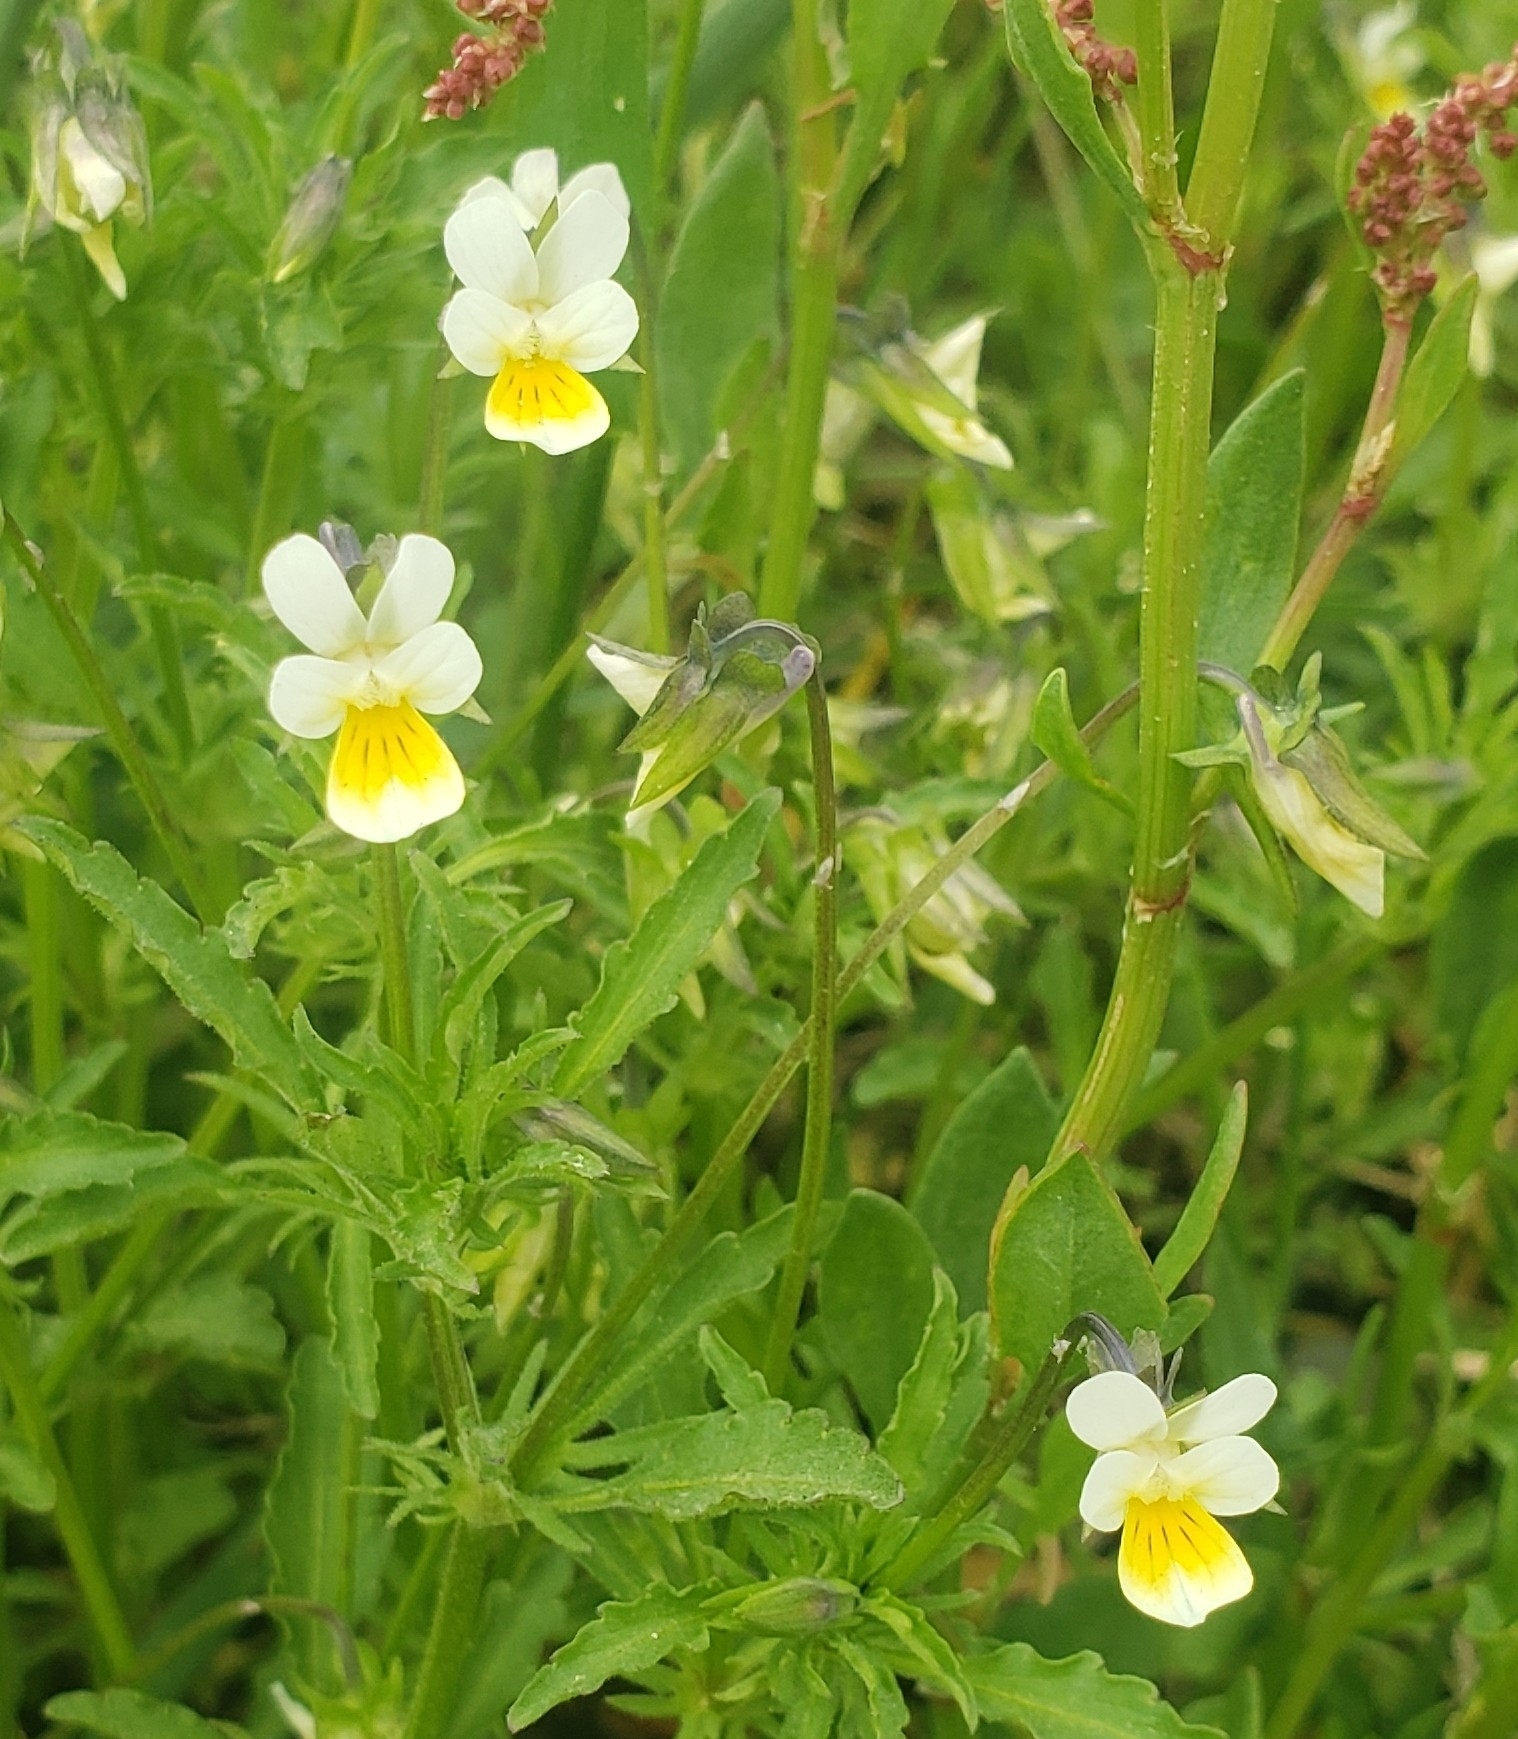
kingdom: Plantae
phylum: Tracheophyta
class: Magnoliopsida
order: Malpighiales
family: Violaceae
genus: Viola
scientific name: Viola arvensis
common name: Field pansy
